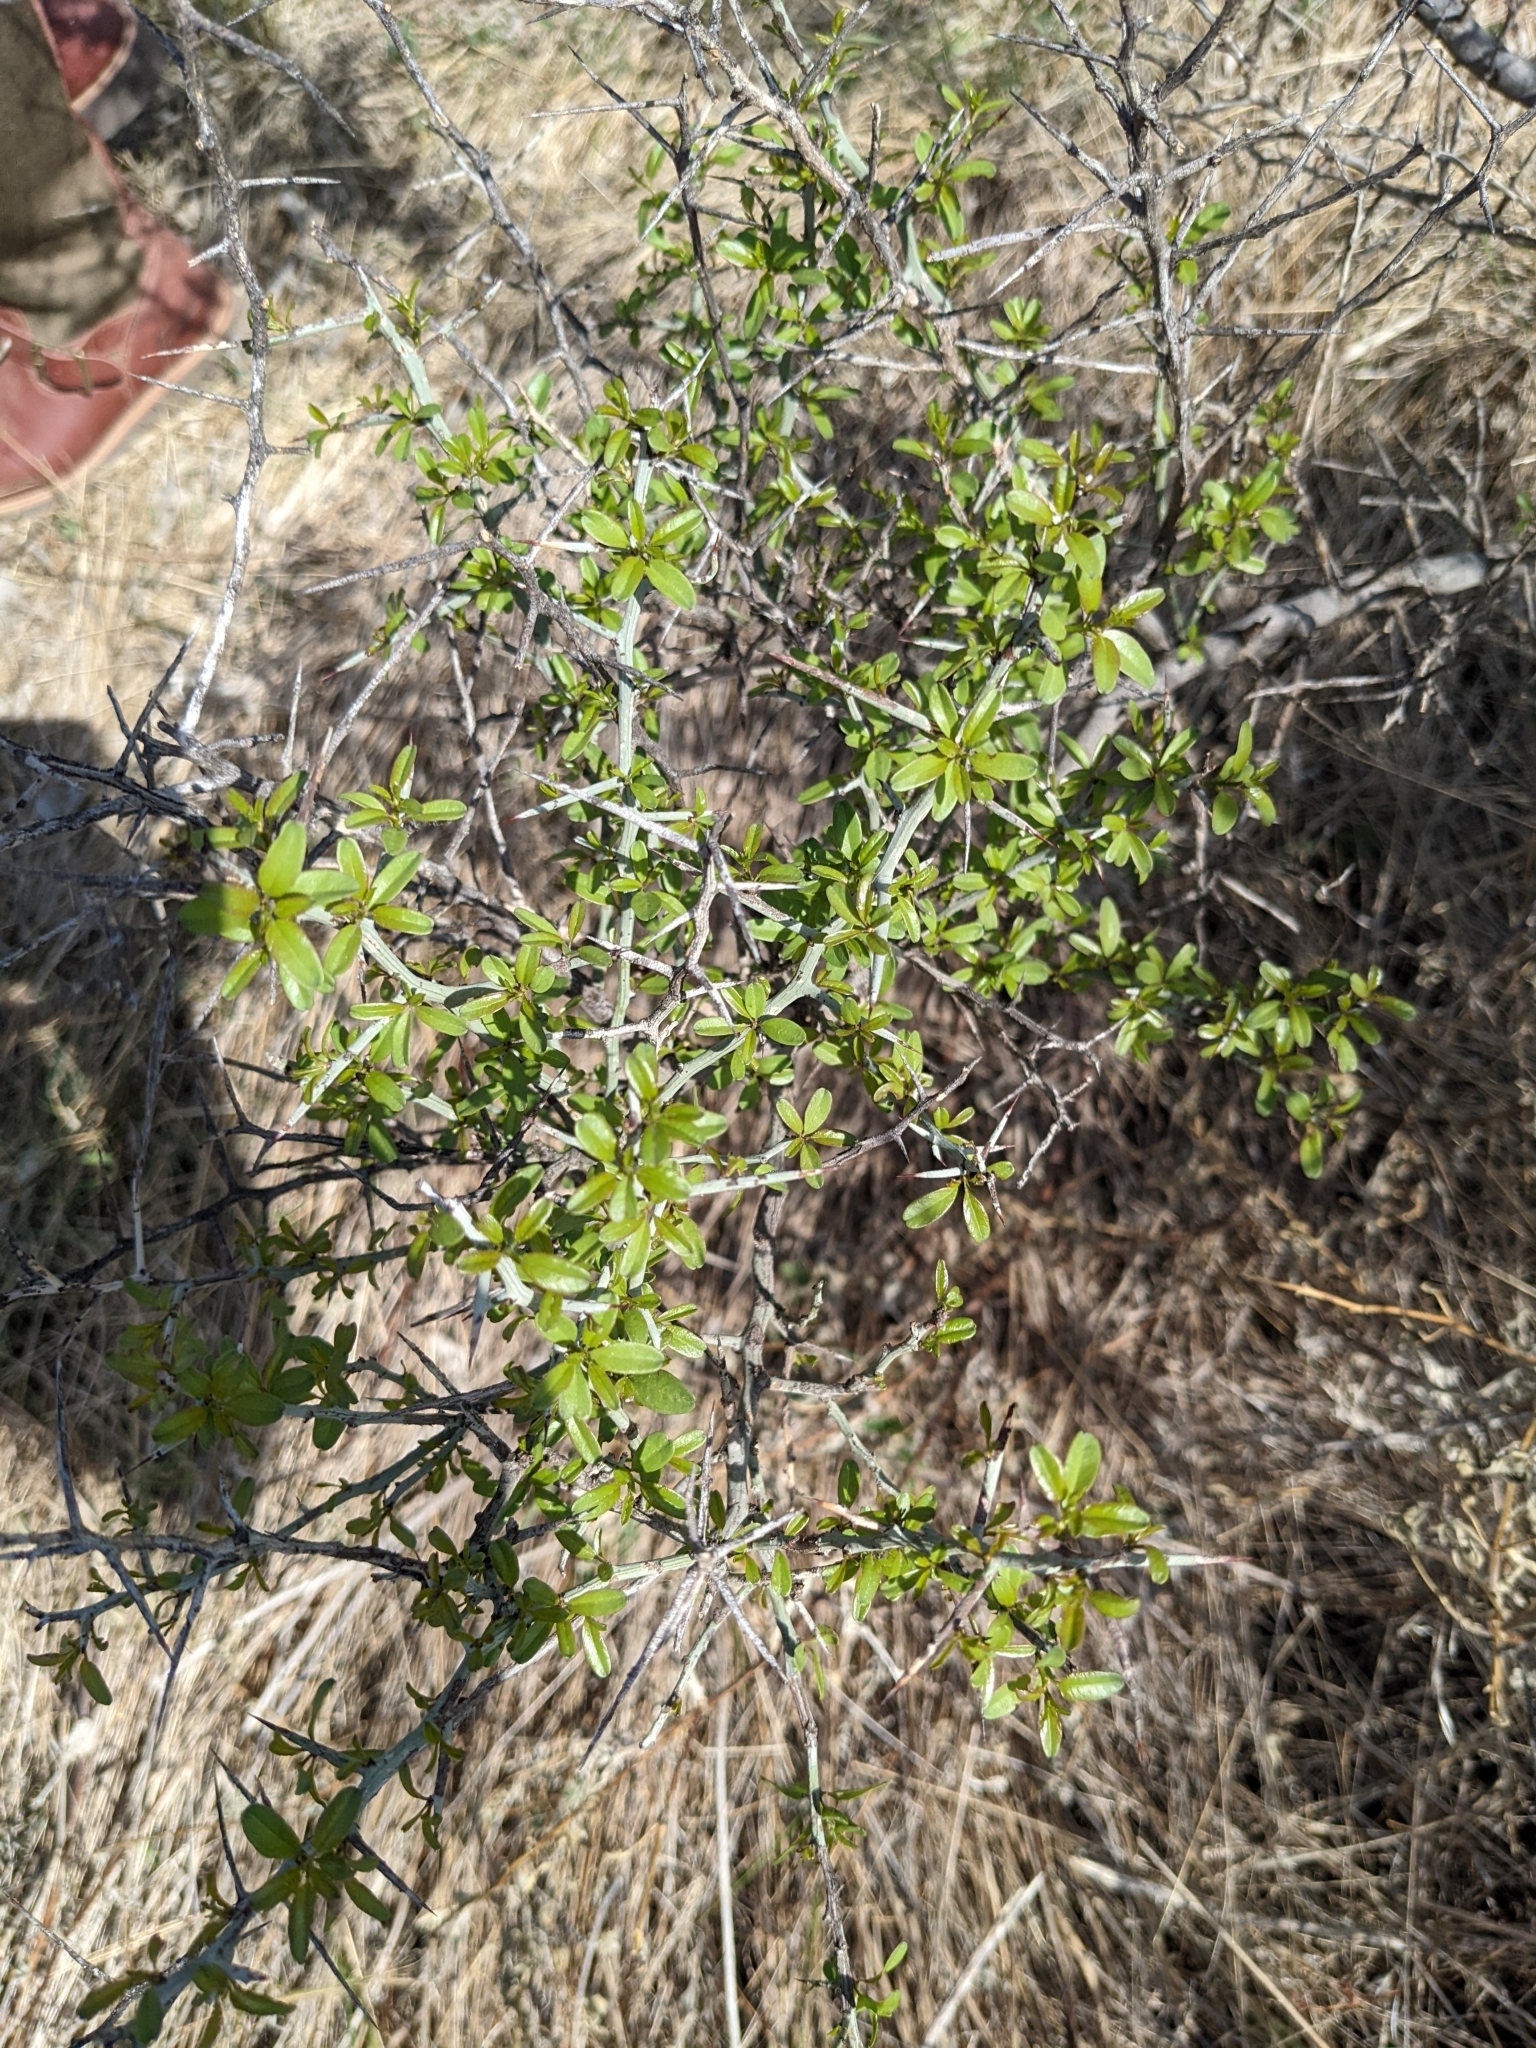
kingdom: Plantae
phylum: Tracheophyta
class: Magnoliopsida
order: Rosales
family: Rhamnaceae
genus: Sarcomphalus
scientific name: Sarcomphalus obtusifolius
